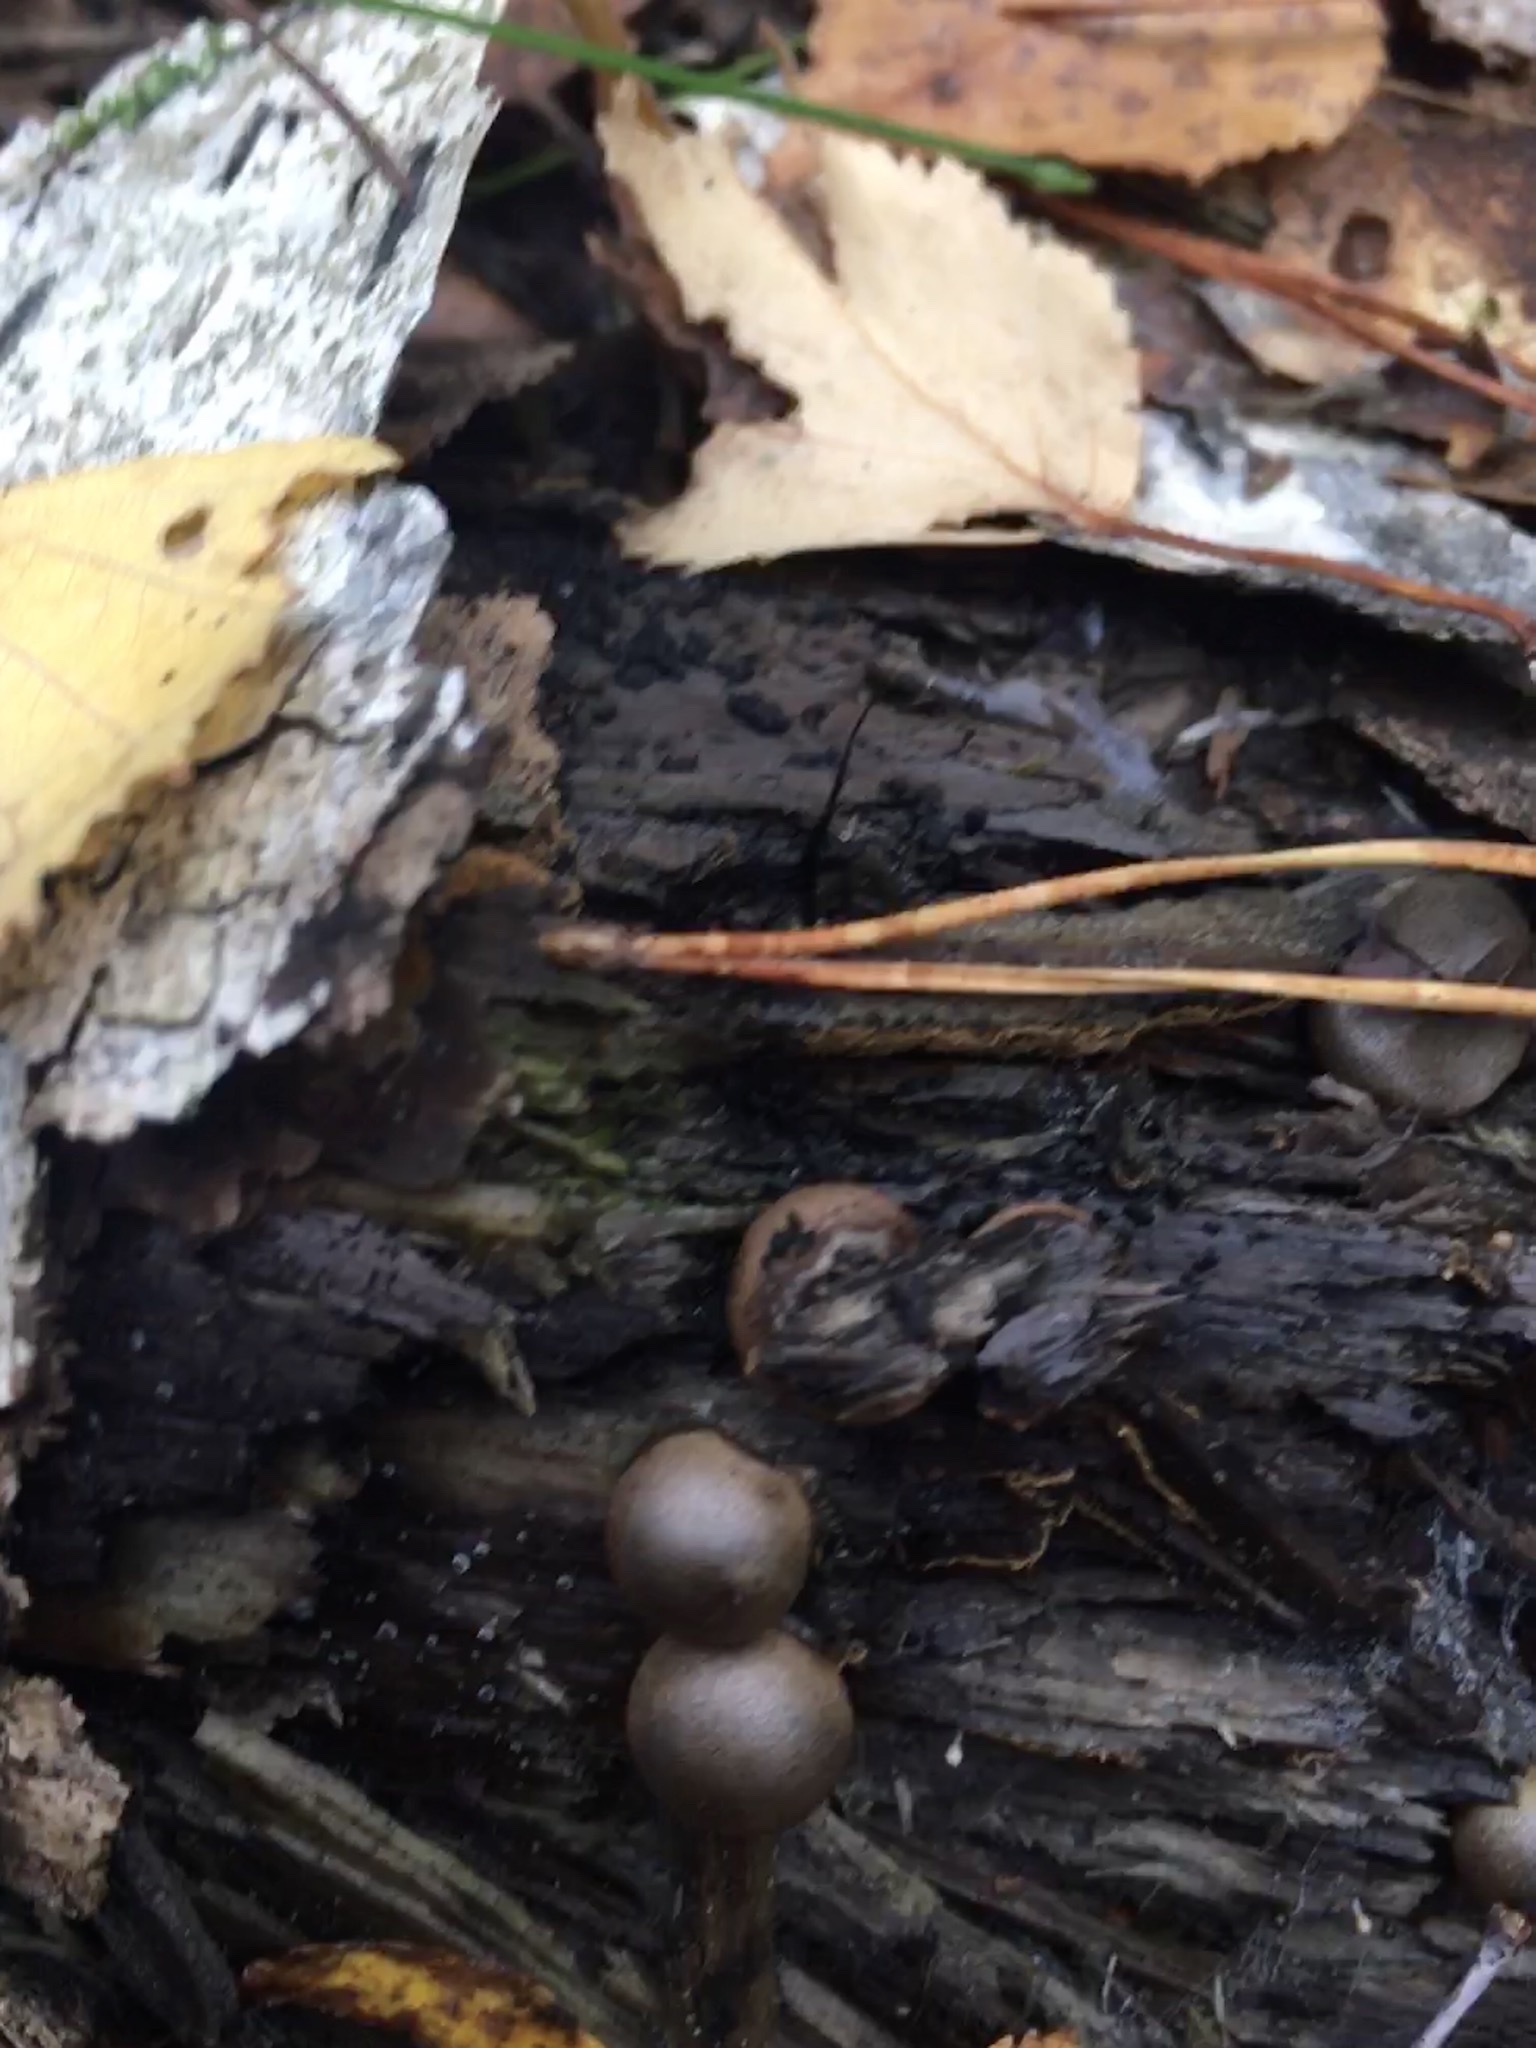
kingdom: Protozoa
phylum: Mycetozoa
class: Myxomycetes
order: Cribrariales
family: Tubiferaceae
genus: Lycogala
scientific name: Lycogala epidendrum
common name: Wolf's milk
